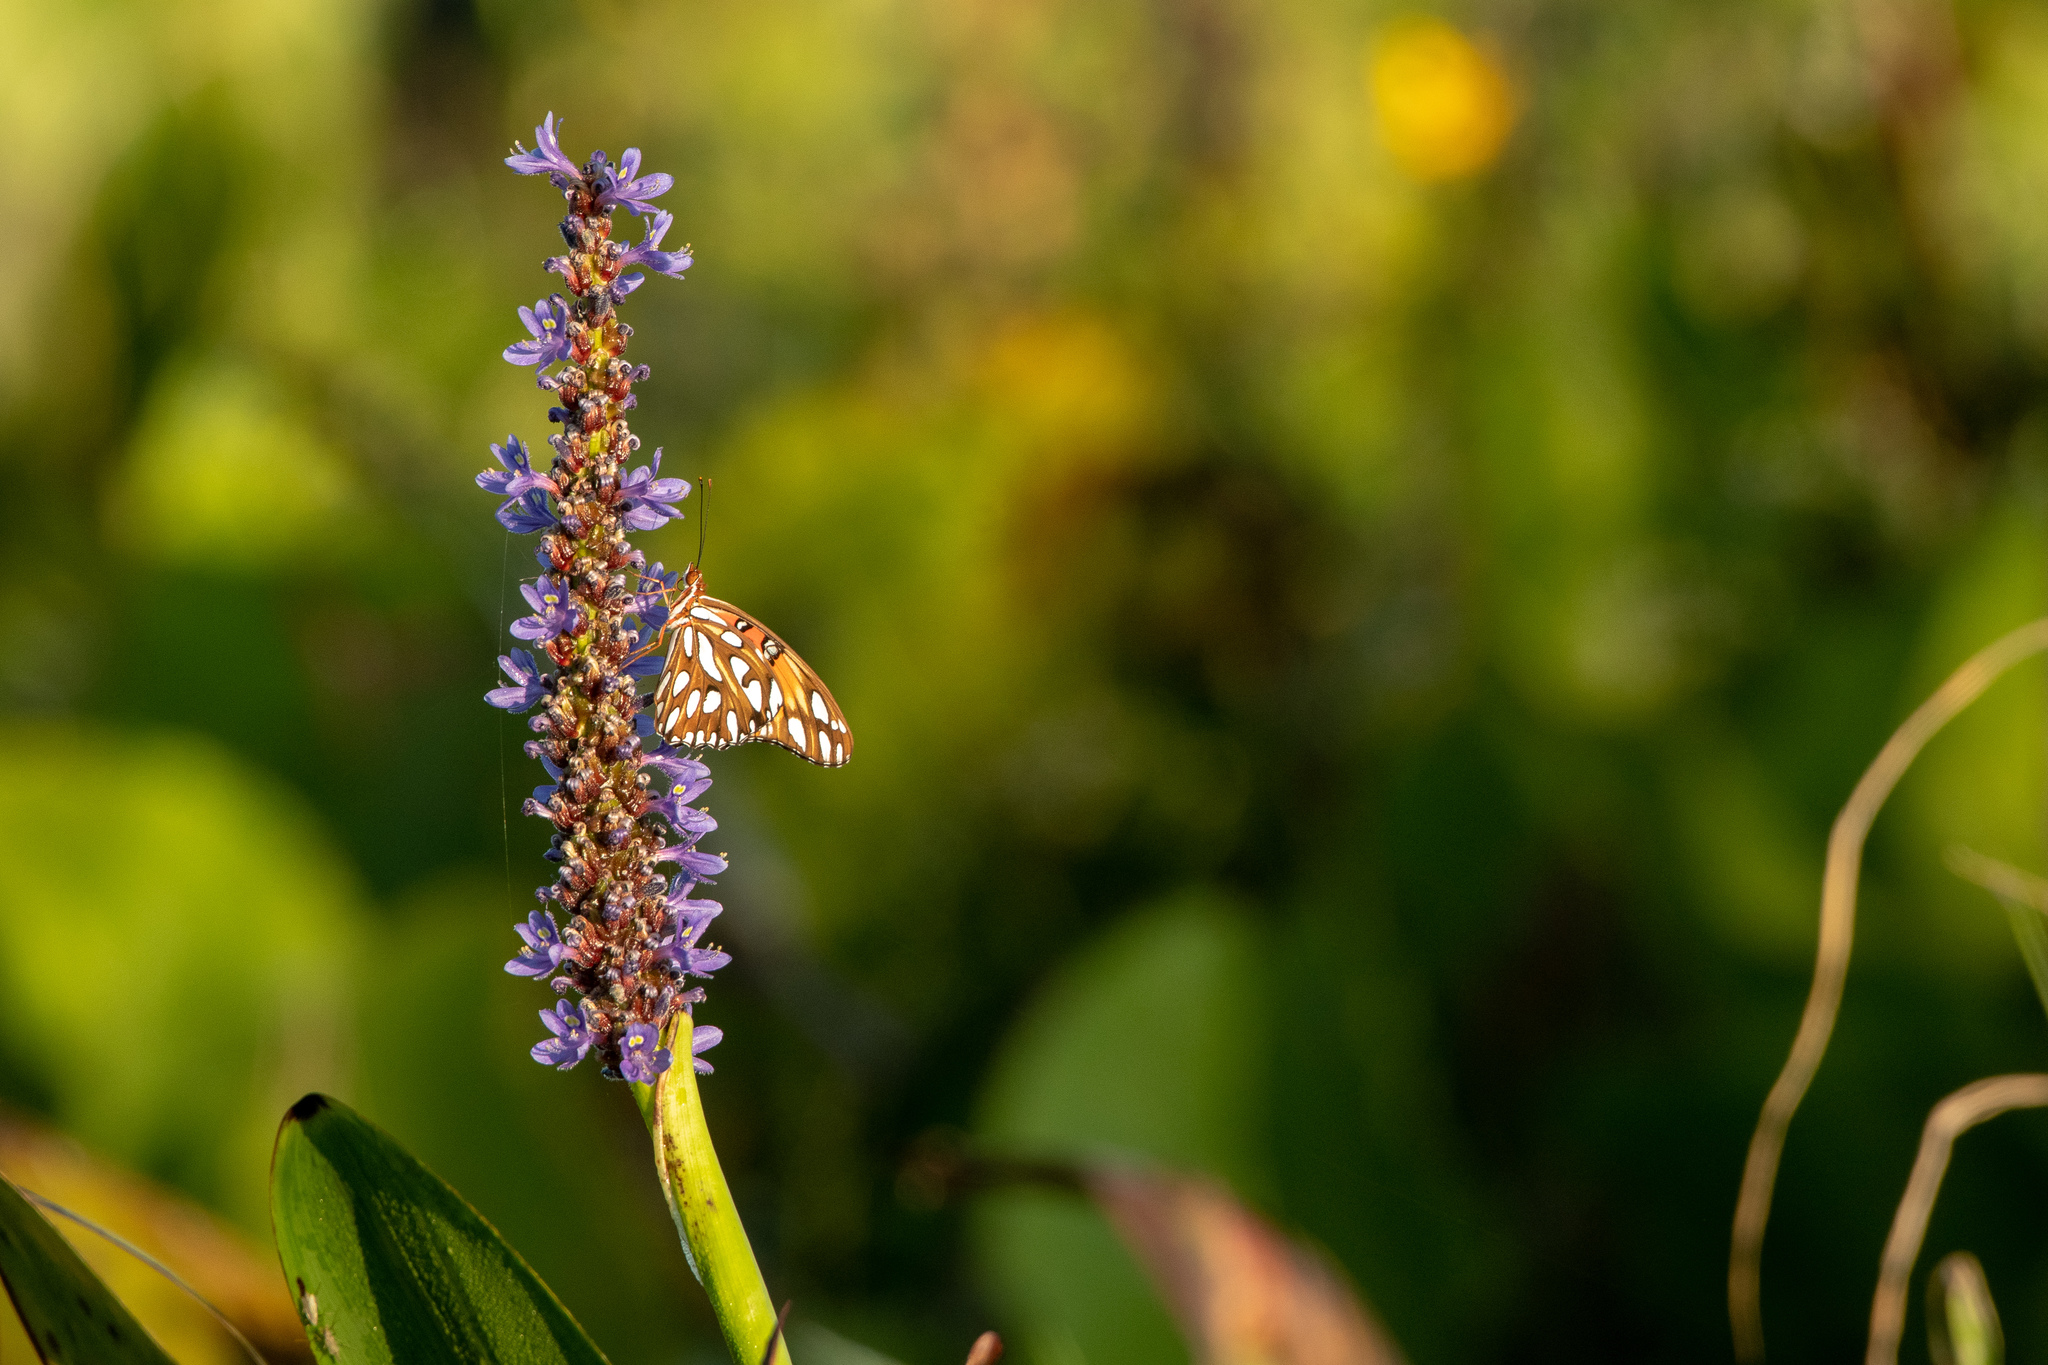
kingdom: Animalia
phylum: Arthropoda
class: Insecta
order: Lepidoptera
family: Nymphalidae
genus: Dione
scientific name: Dione vanillae
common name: Gulf fritillary
